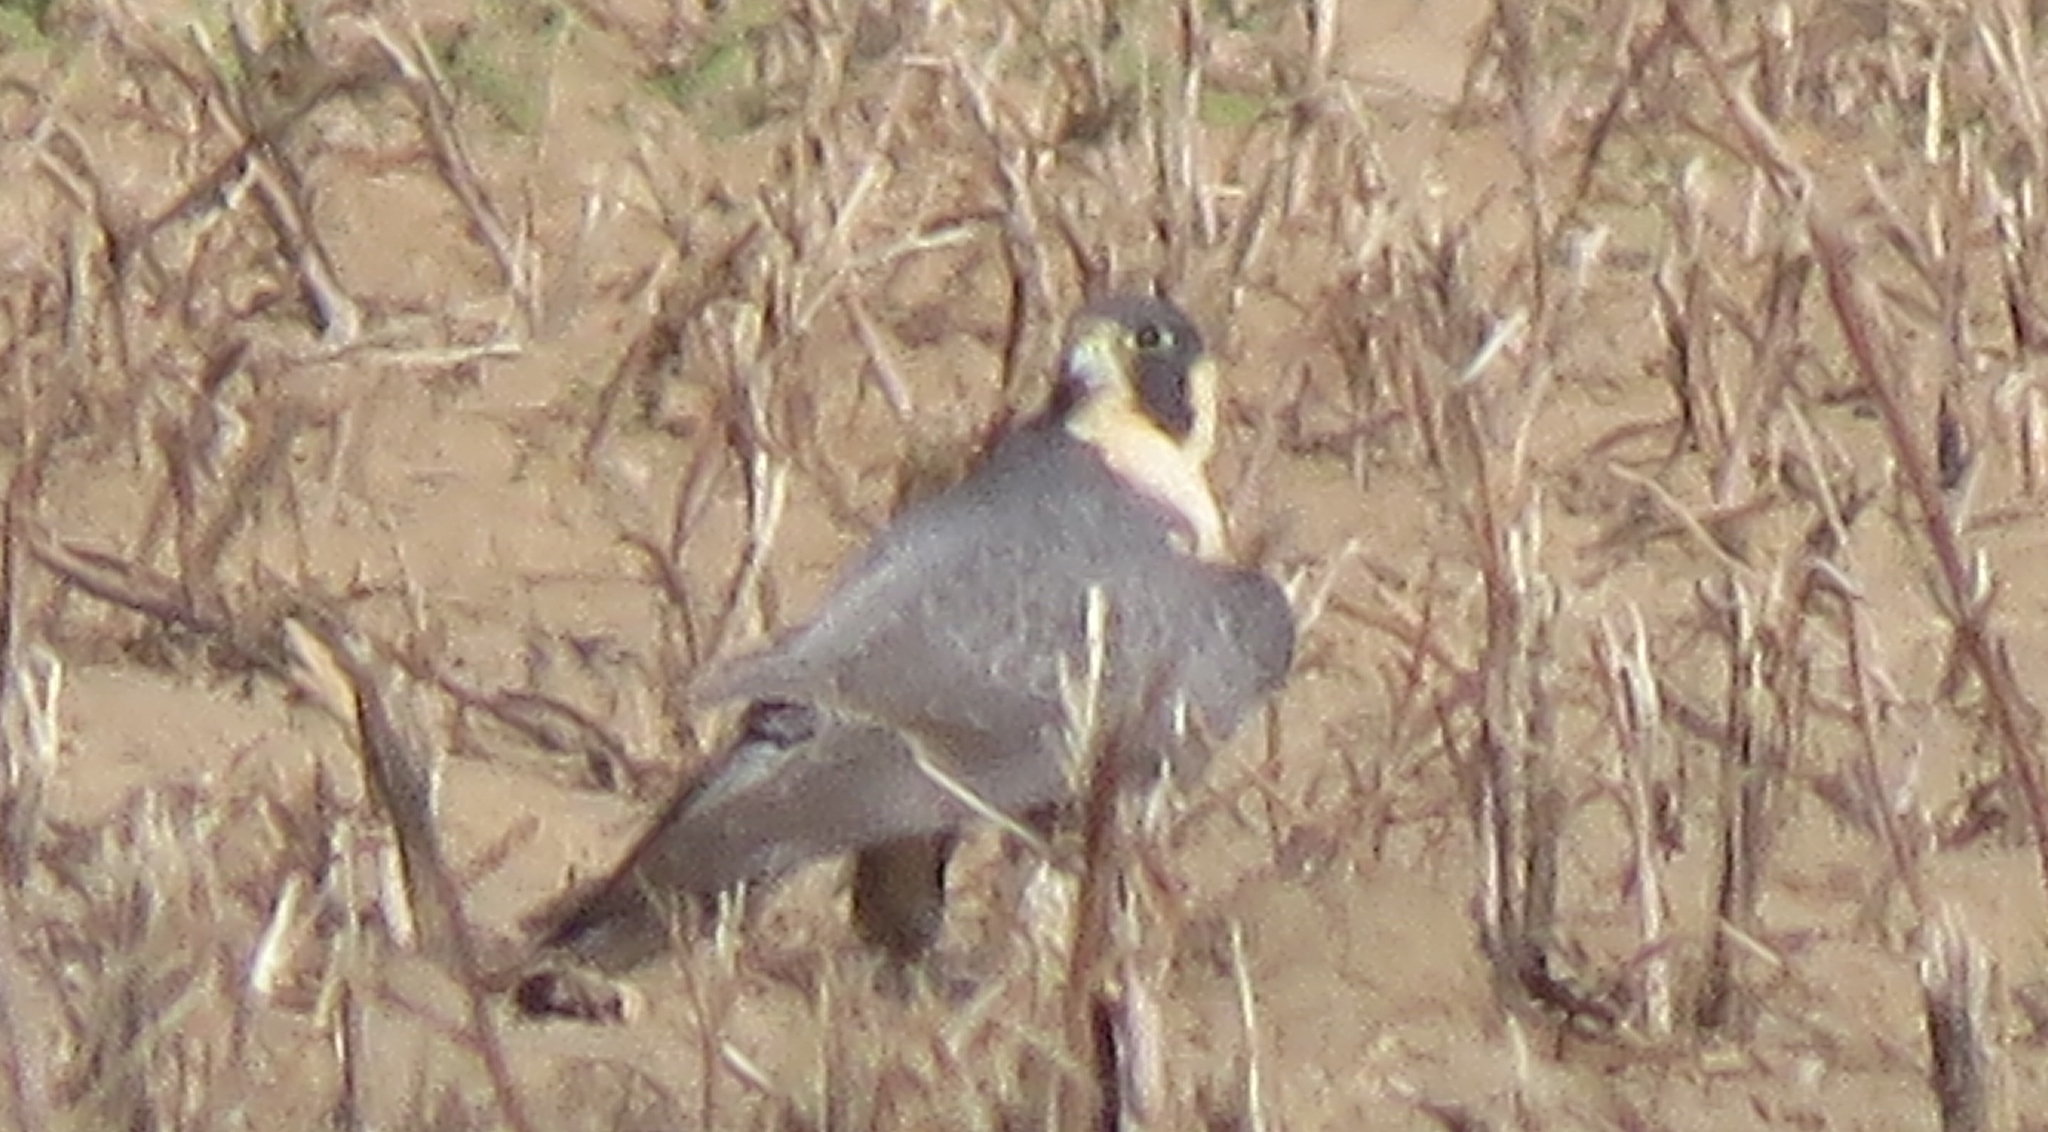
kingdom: Animalia
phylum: Chordata
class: Aves
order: Falconiformes
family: Falconidae
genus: Falco
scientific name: Falco peregrinus
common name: Peregrine falcon
